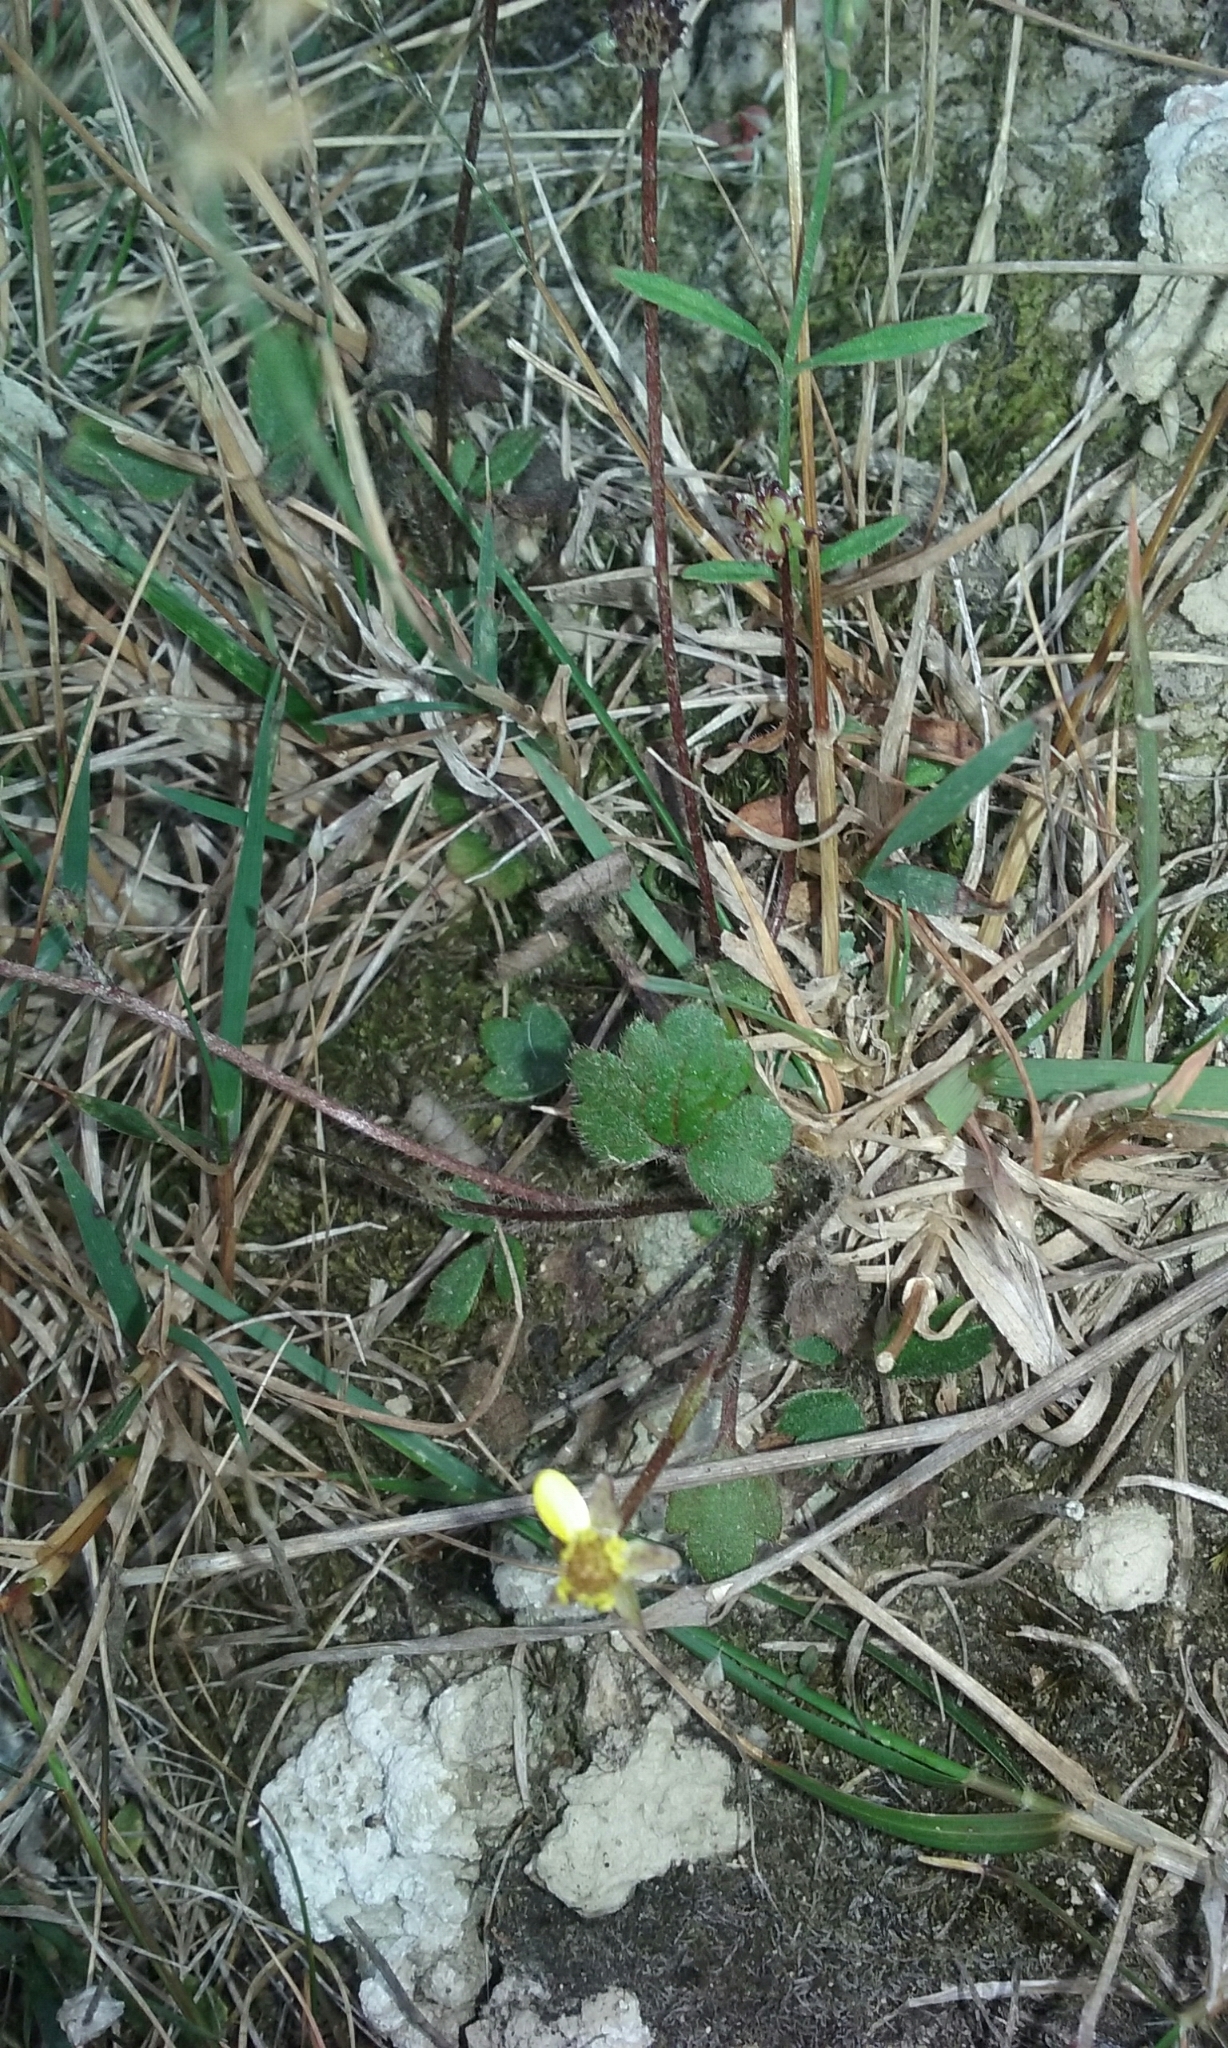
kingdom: Plantae
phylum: Tracheophyta
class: Magnoliopsida
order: Ranunculales
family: Ranunculaceae
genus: Ranunculus
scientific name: Ranunculus multiscapus
